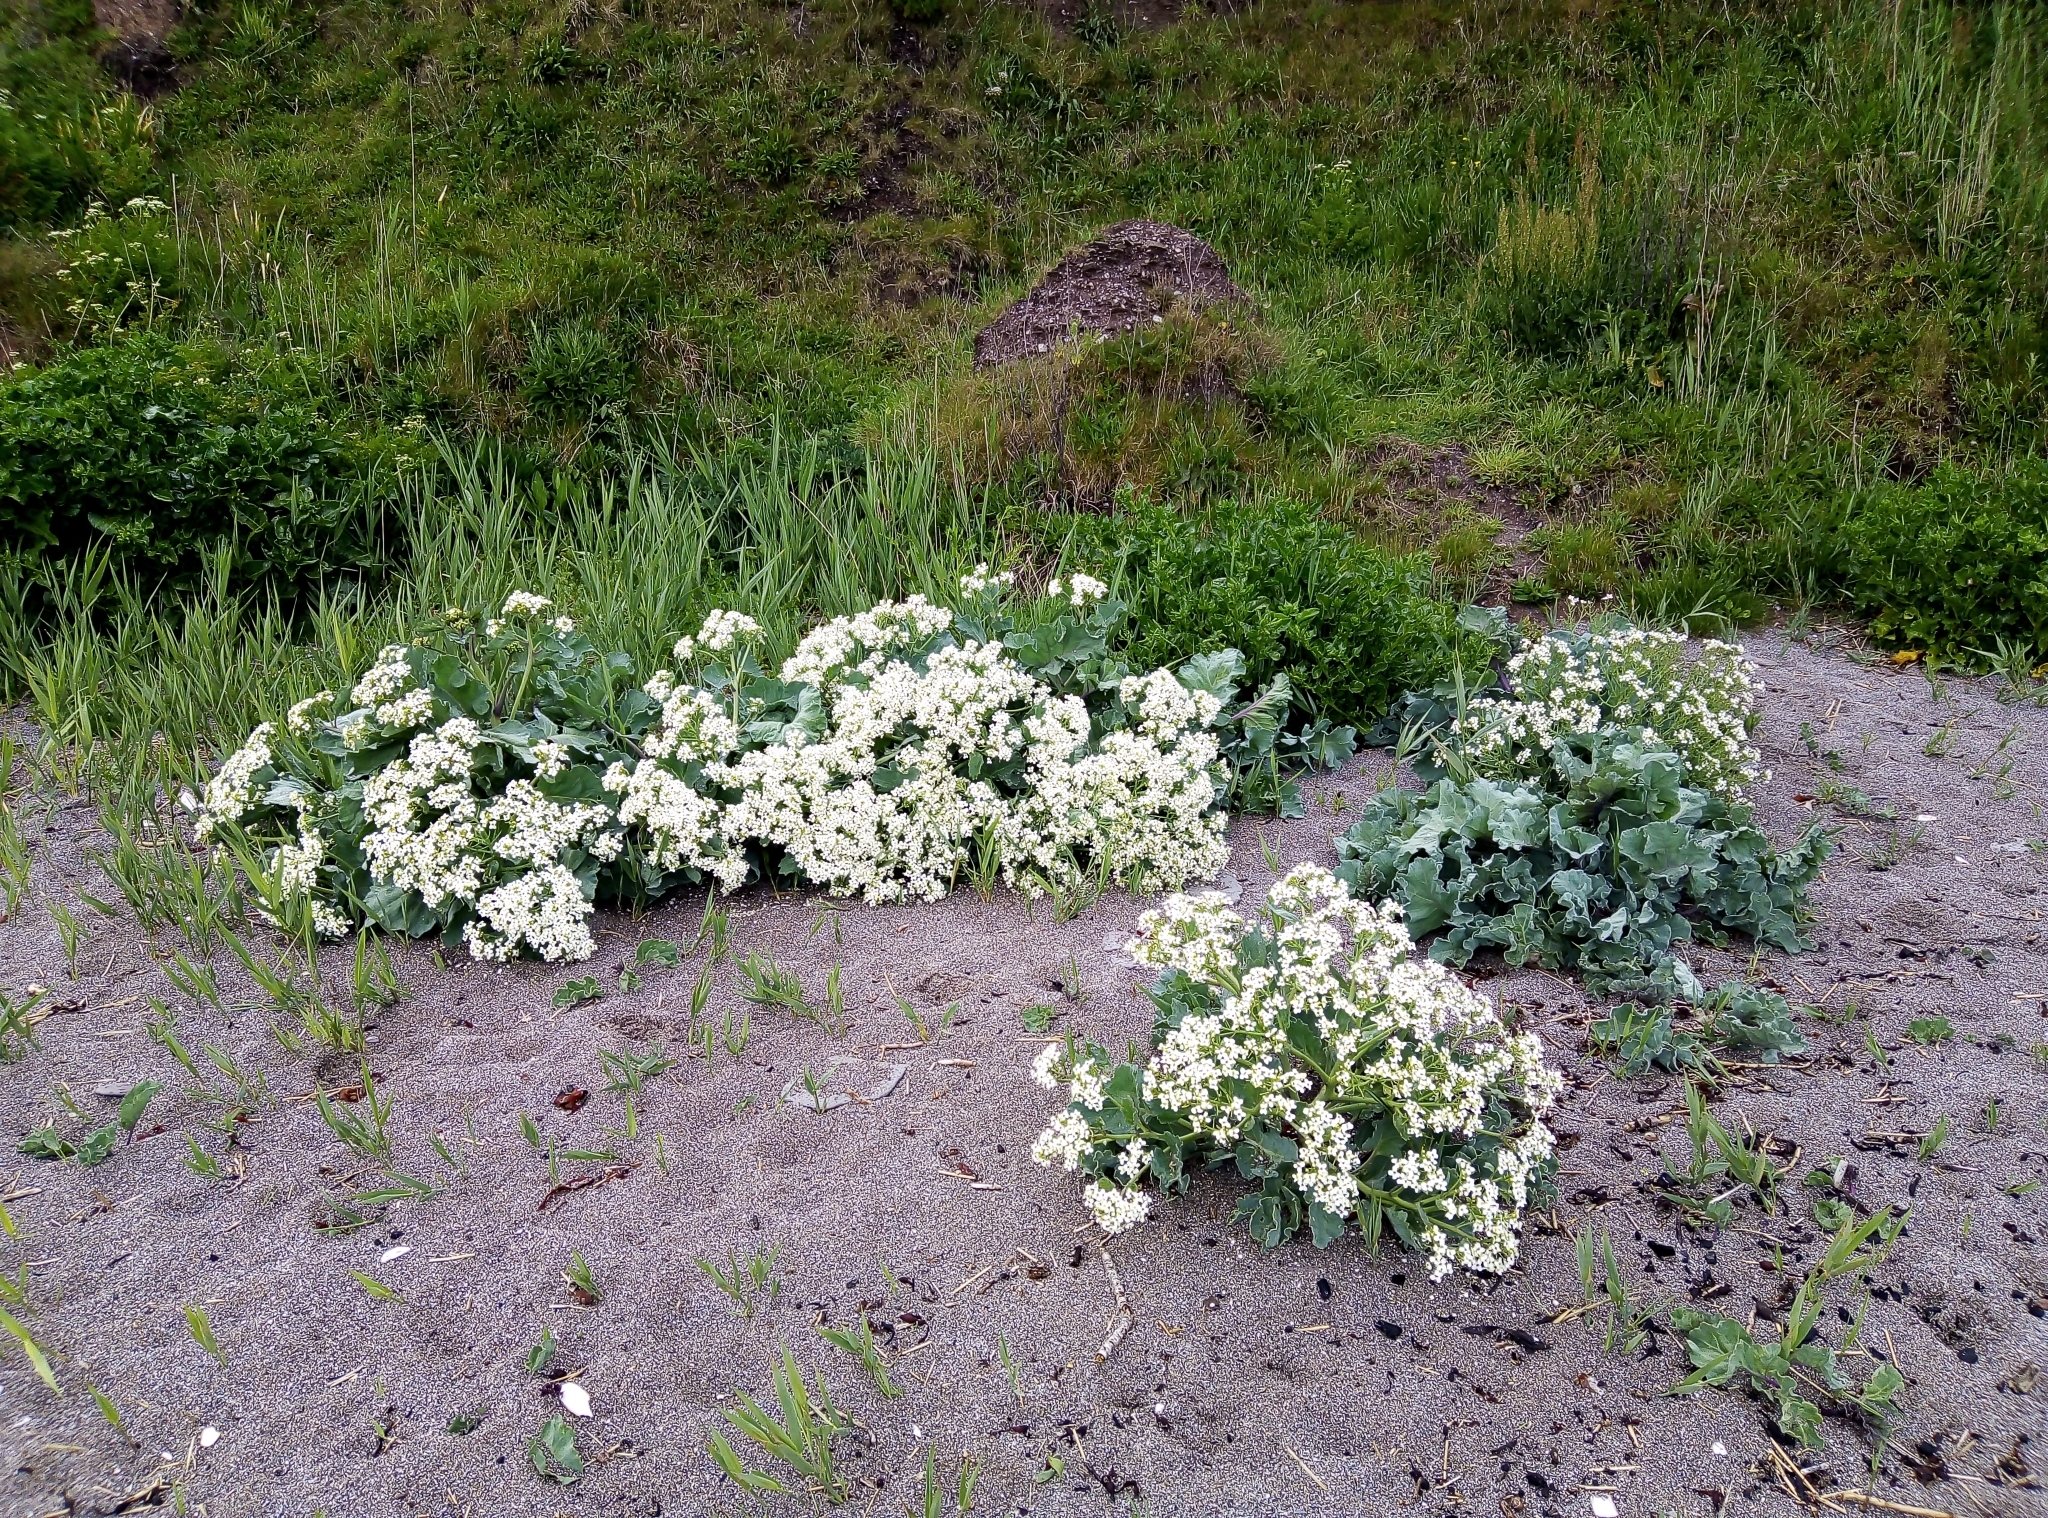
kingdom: Plantae
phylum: Tracheophyta
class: Magnoliopsida
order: Brassicales
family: Brassicaceae
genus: Crambe
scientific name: Crambe maritima
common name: Sea-kale
